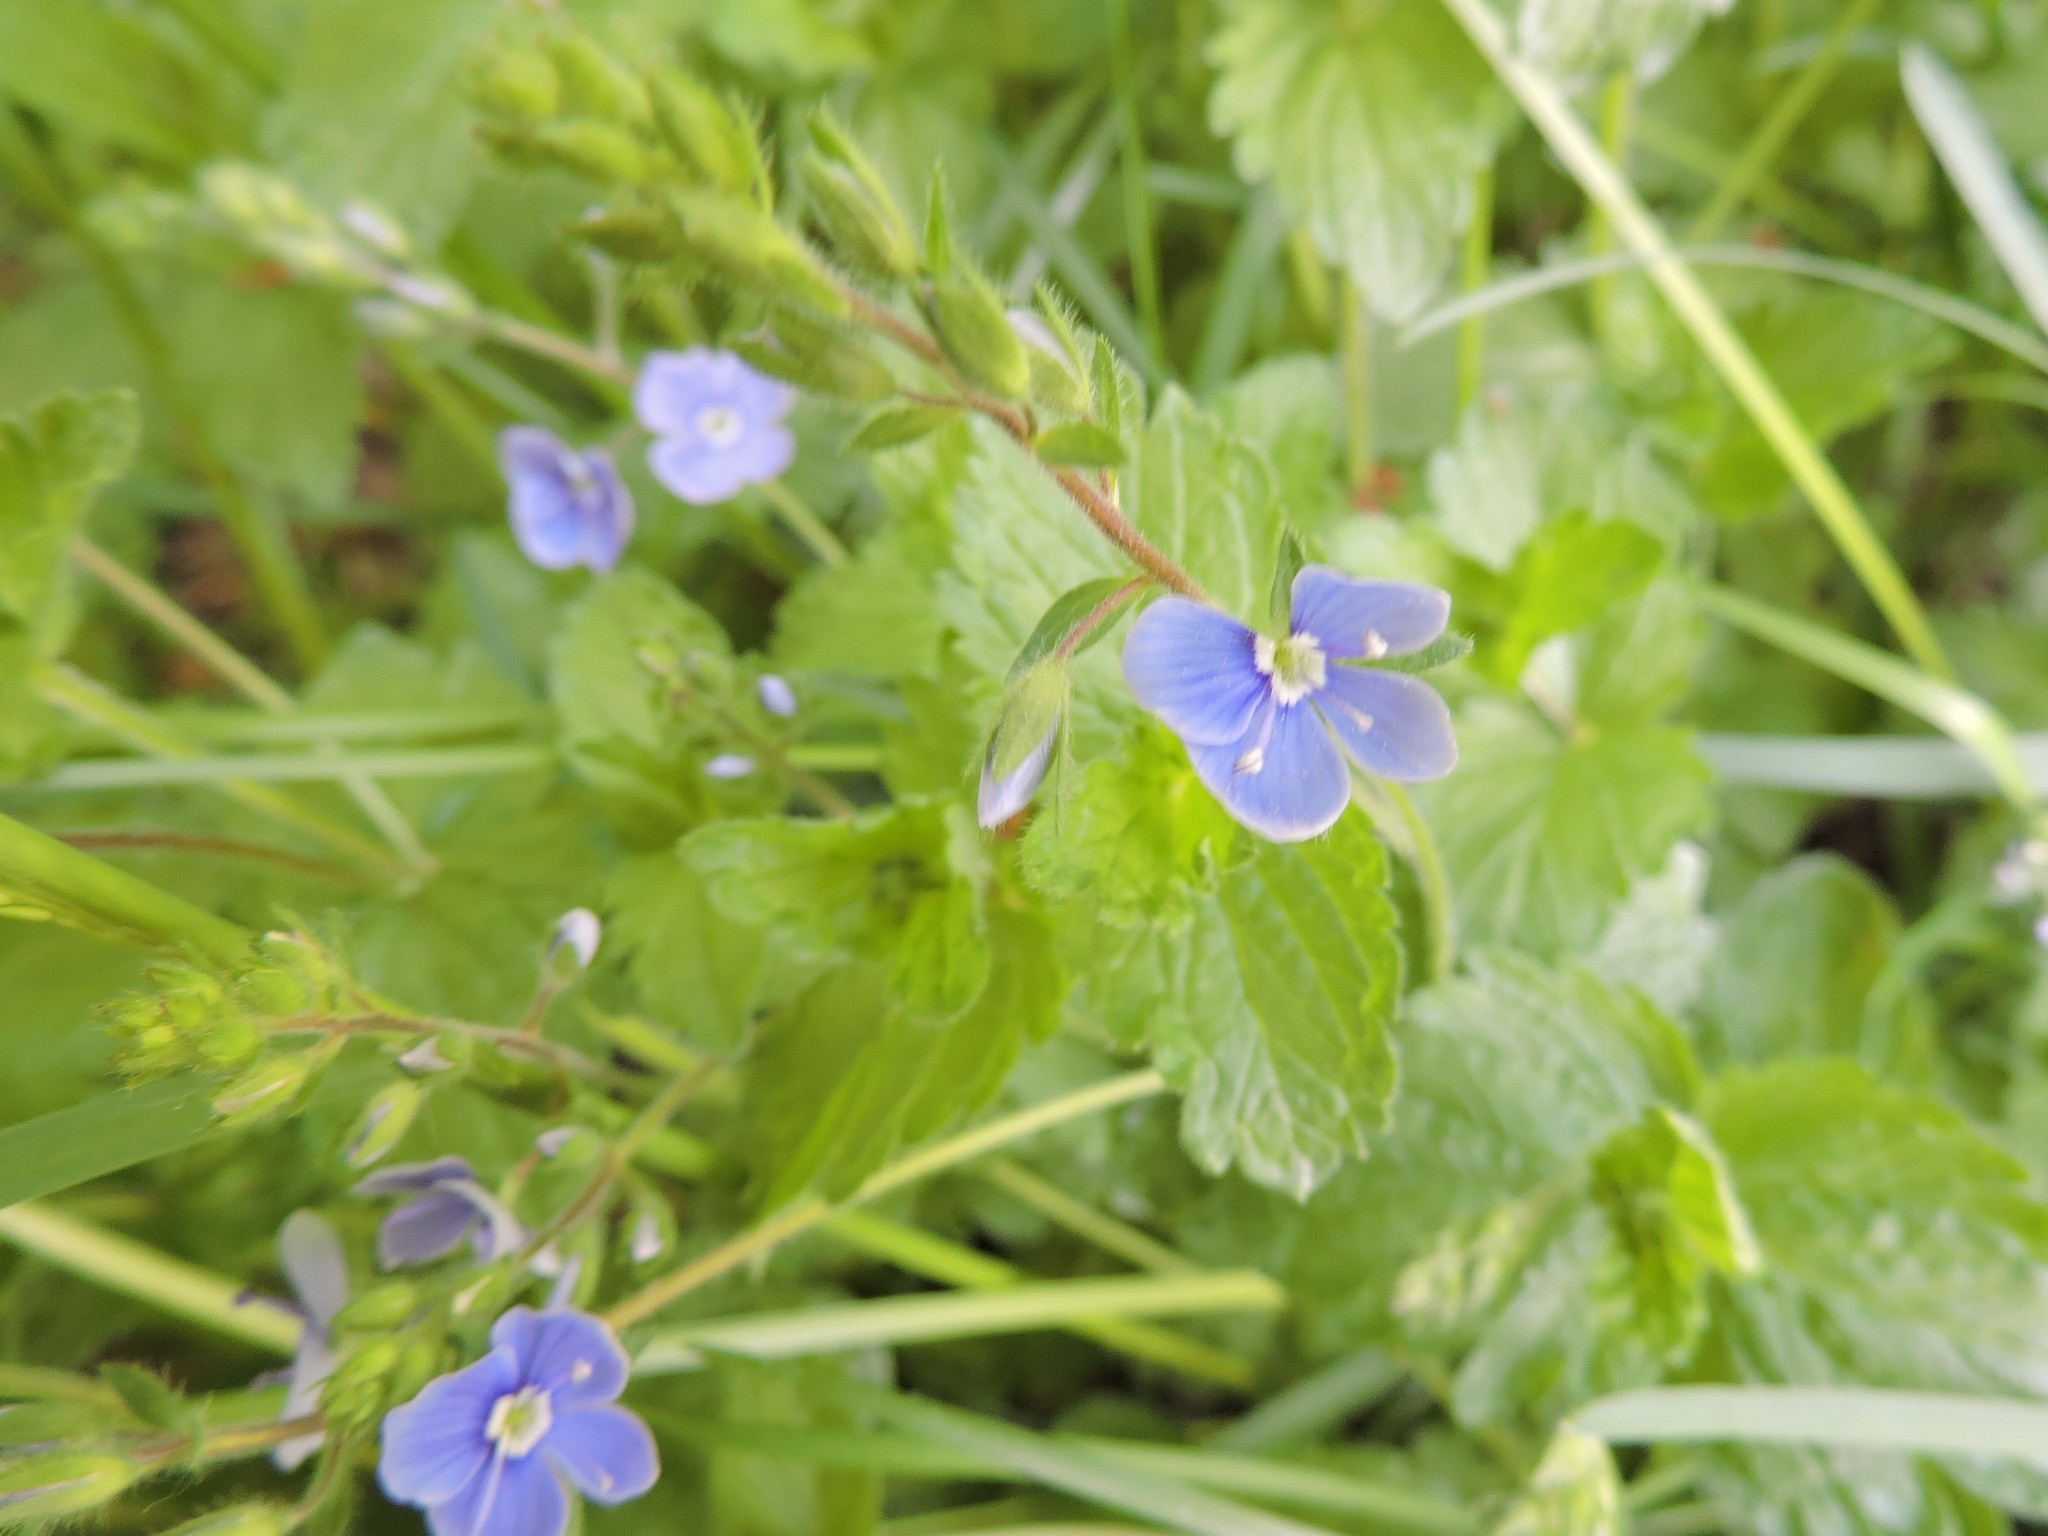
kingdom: Plantae
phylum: Tracheophyta
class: Magnoliopsida
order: Lamiales
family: Plantaginaceae
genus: Veronica
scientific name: Veronica chamaedrys
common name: Germander speedwell
